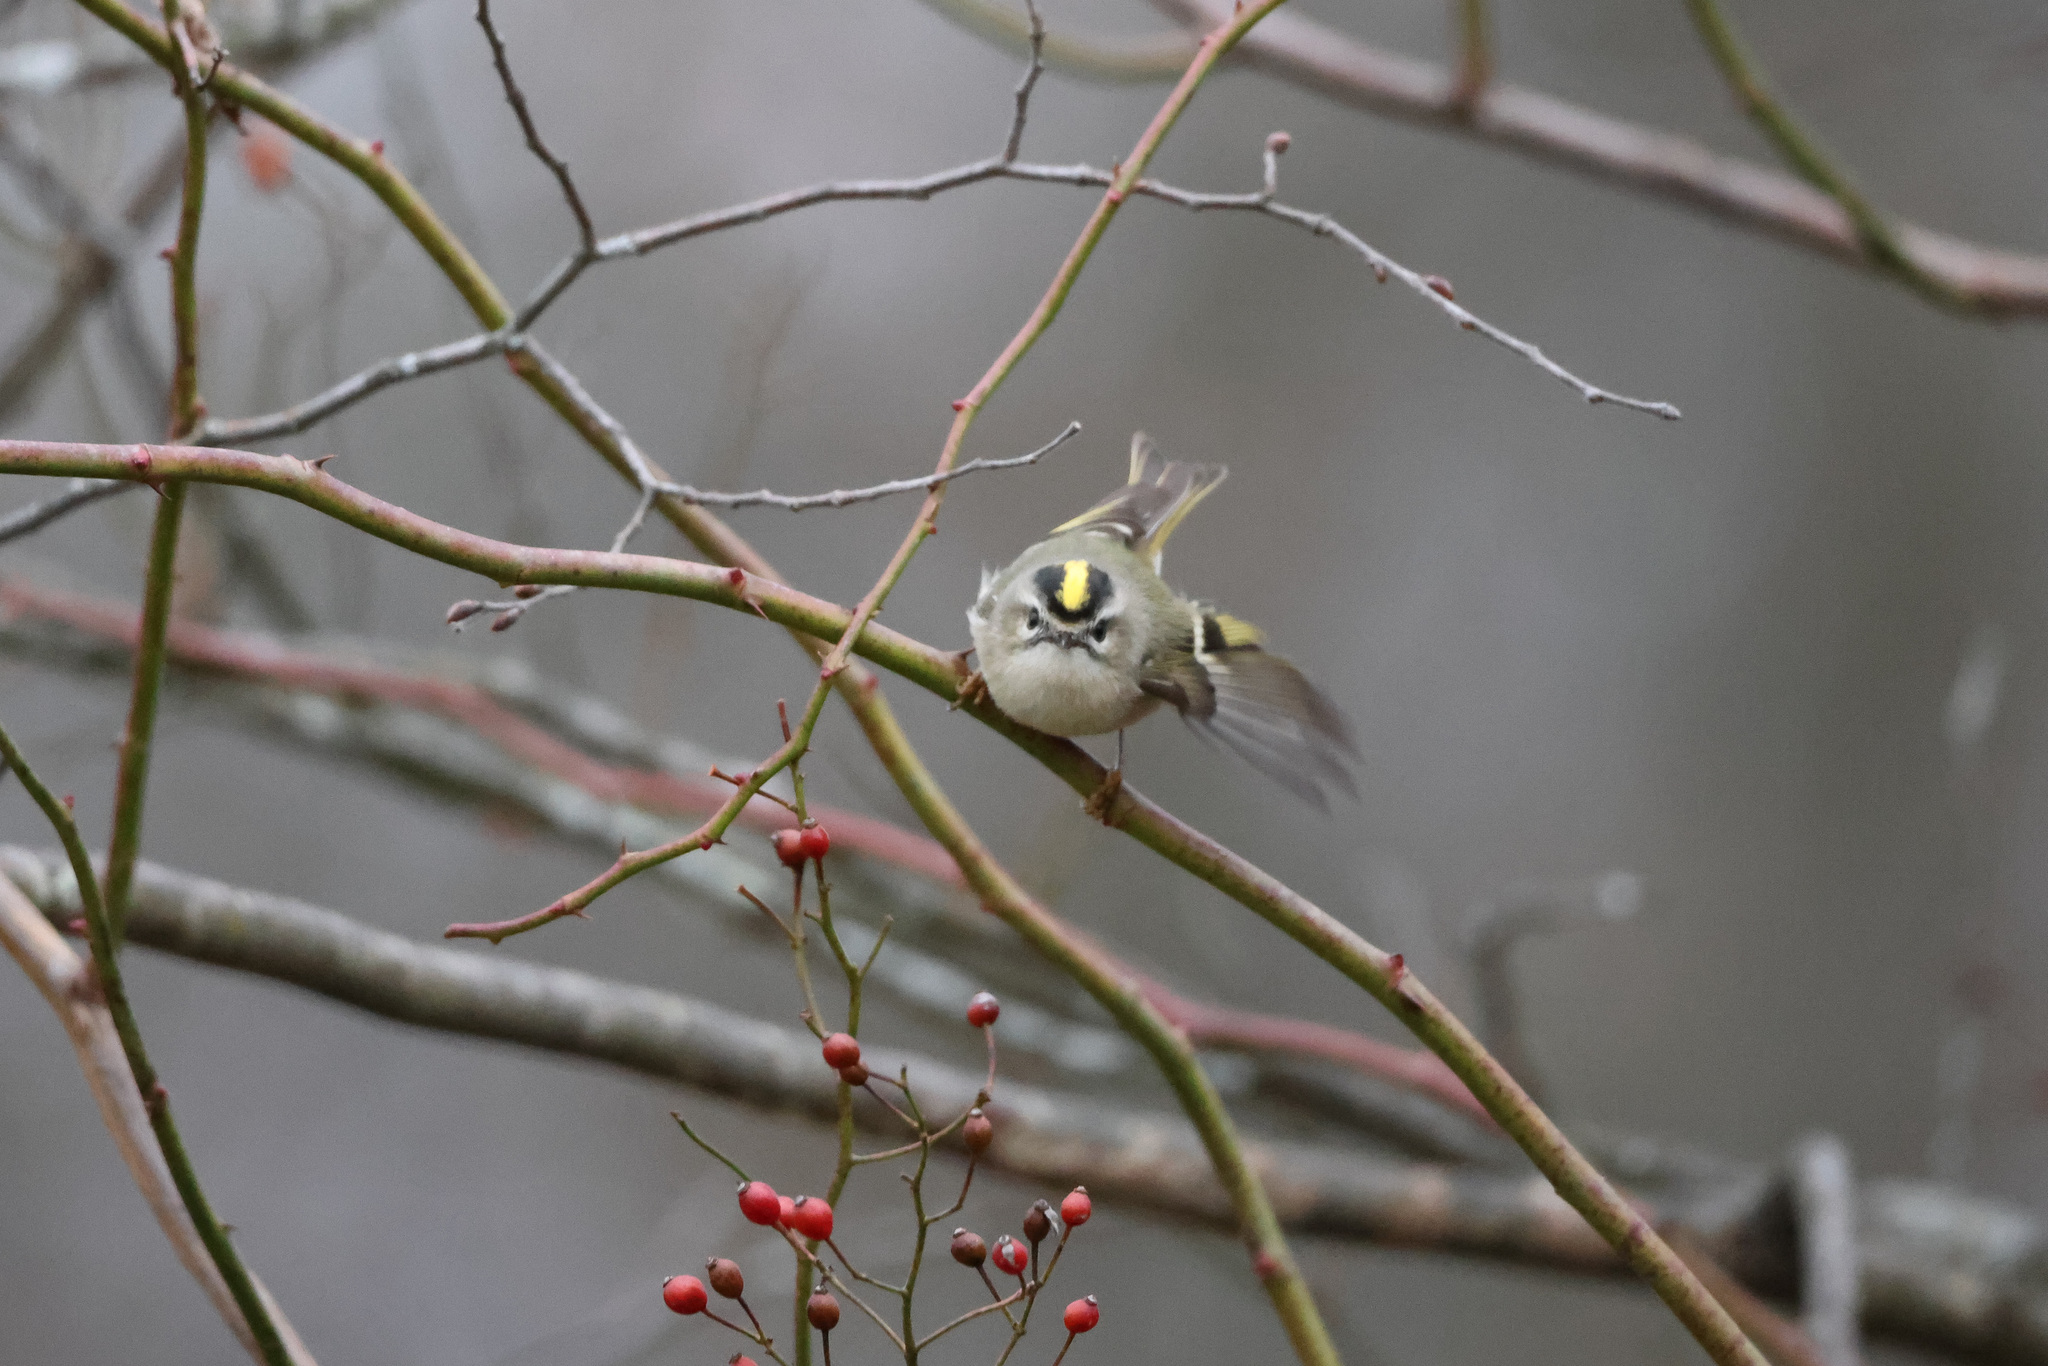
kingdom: Animalia
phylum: Chordata
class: Aves
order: Passeriformes
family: Regulidae
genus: Regulus
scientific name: Regulus satrapa
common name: Golden-crowned kinglet
